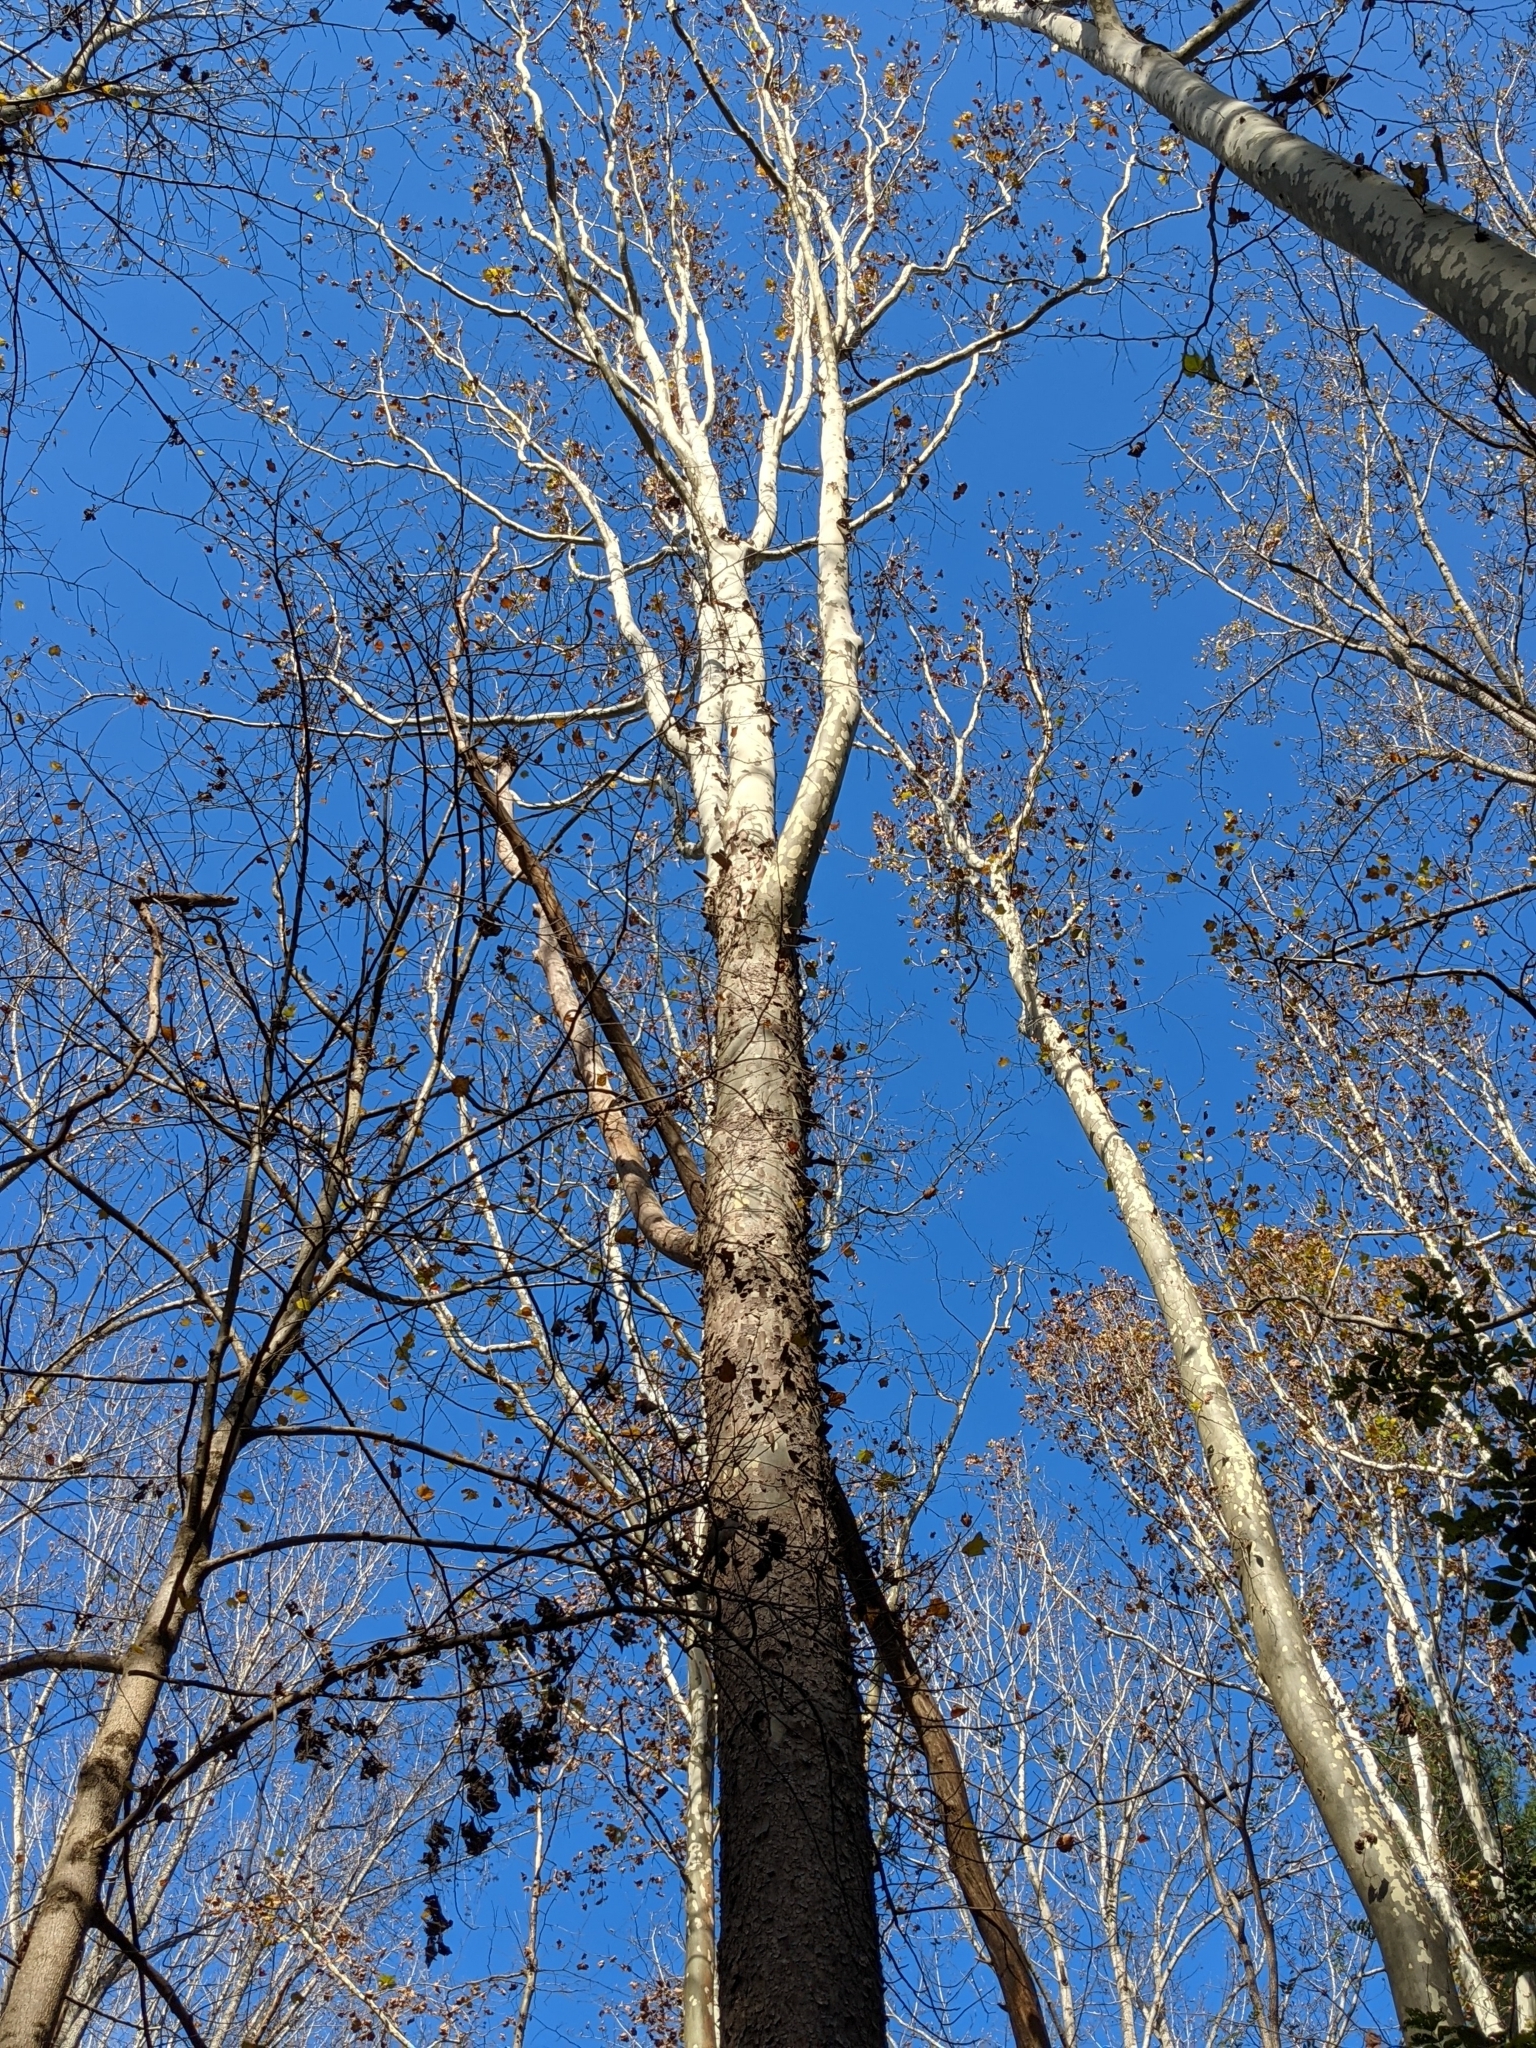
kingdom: Plantae
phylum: Tracheophyta
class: Magnoliopsida
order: Proteales
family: Platanaceae
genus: Platanus
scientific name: Platanus occidentalis
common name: American sycamore
